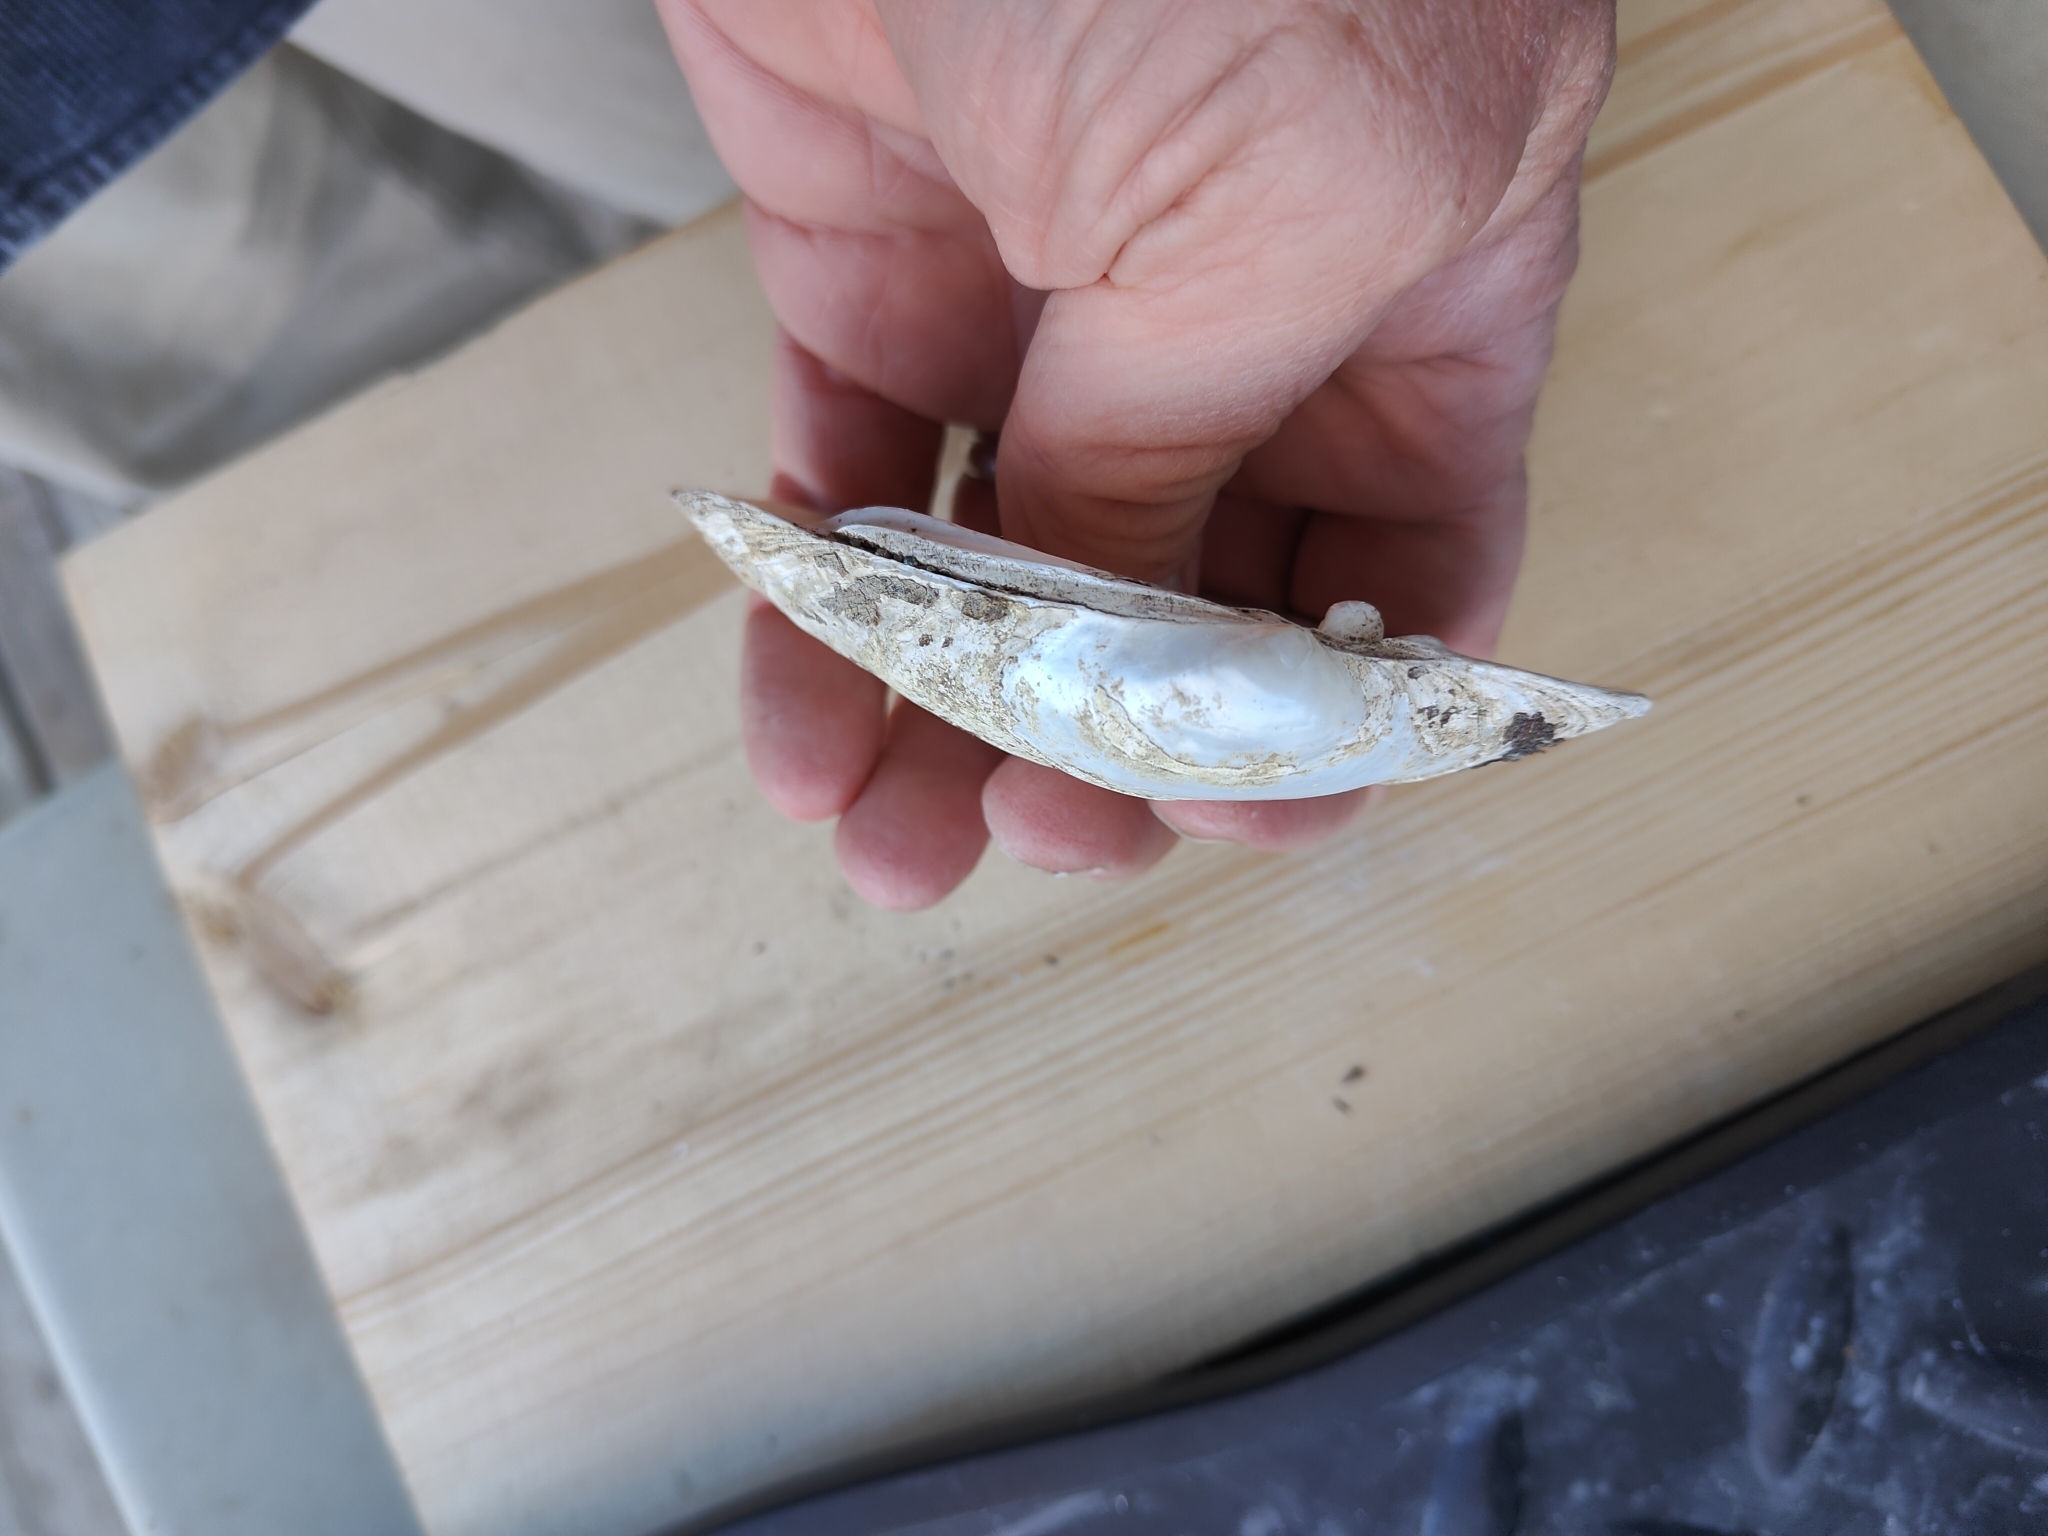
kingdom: Animalia
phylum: Mollusca
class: Bivalvia
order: Unionida
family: Unionidae
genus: Lampsilis
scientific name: Lampsilis cardium
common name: Plain pocketbook
